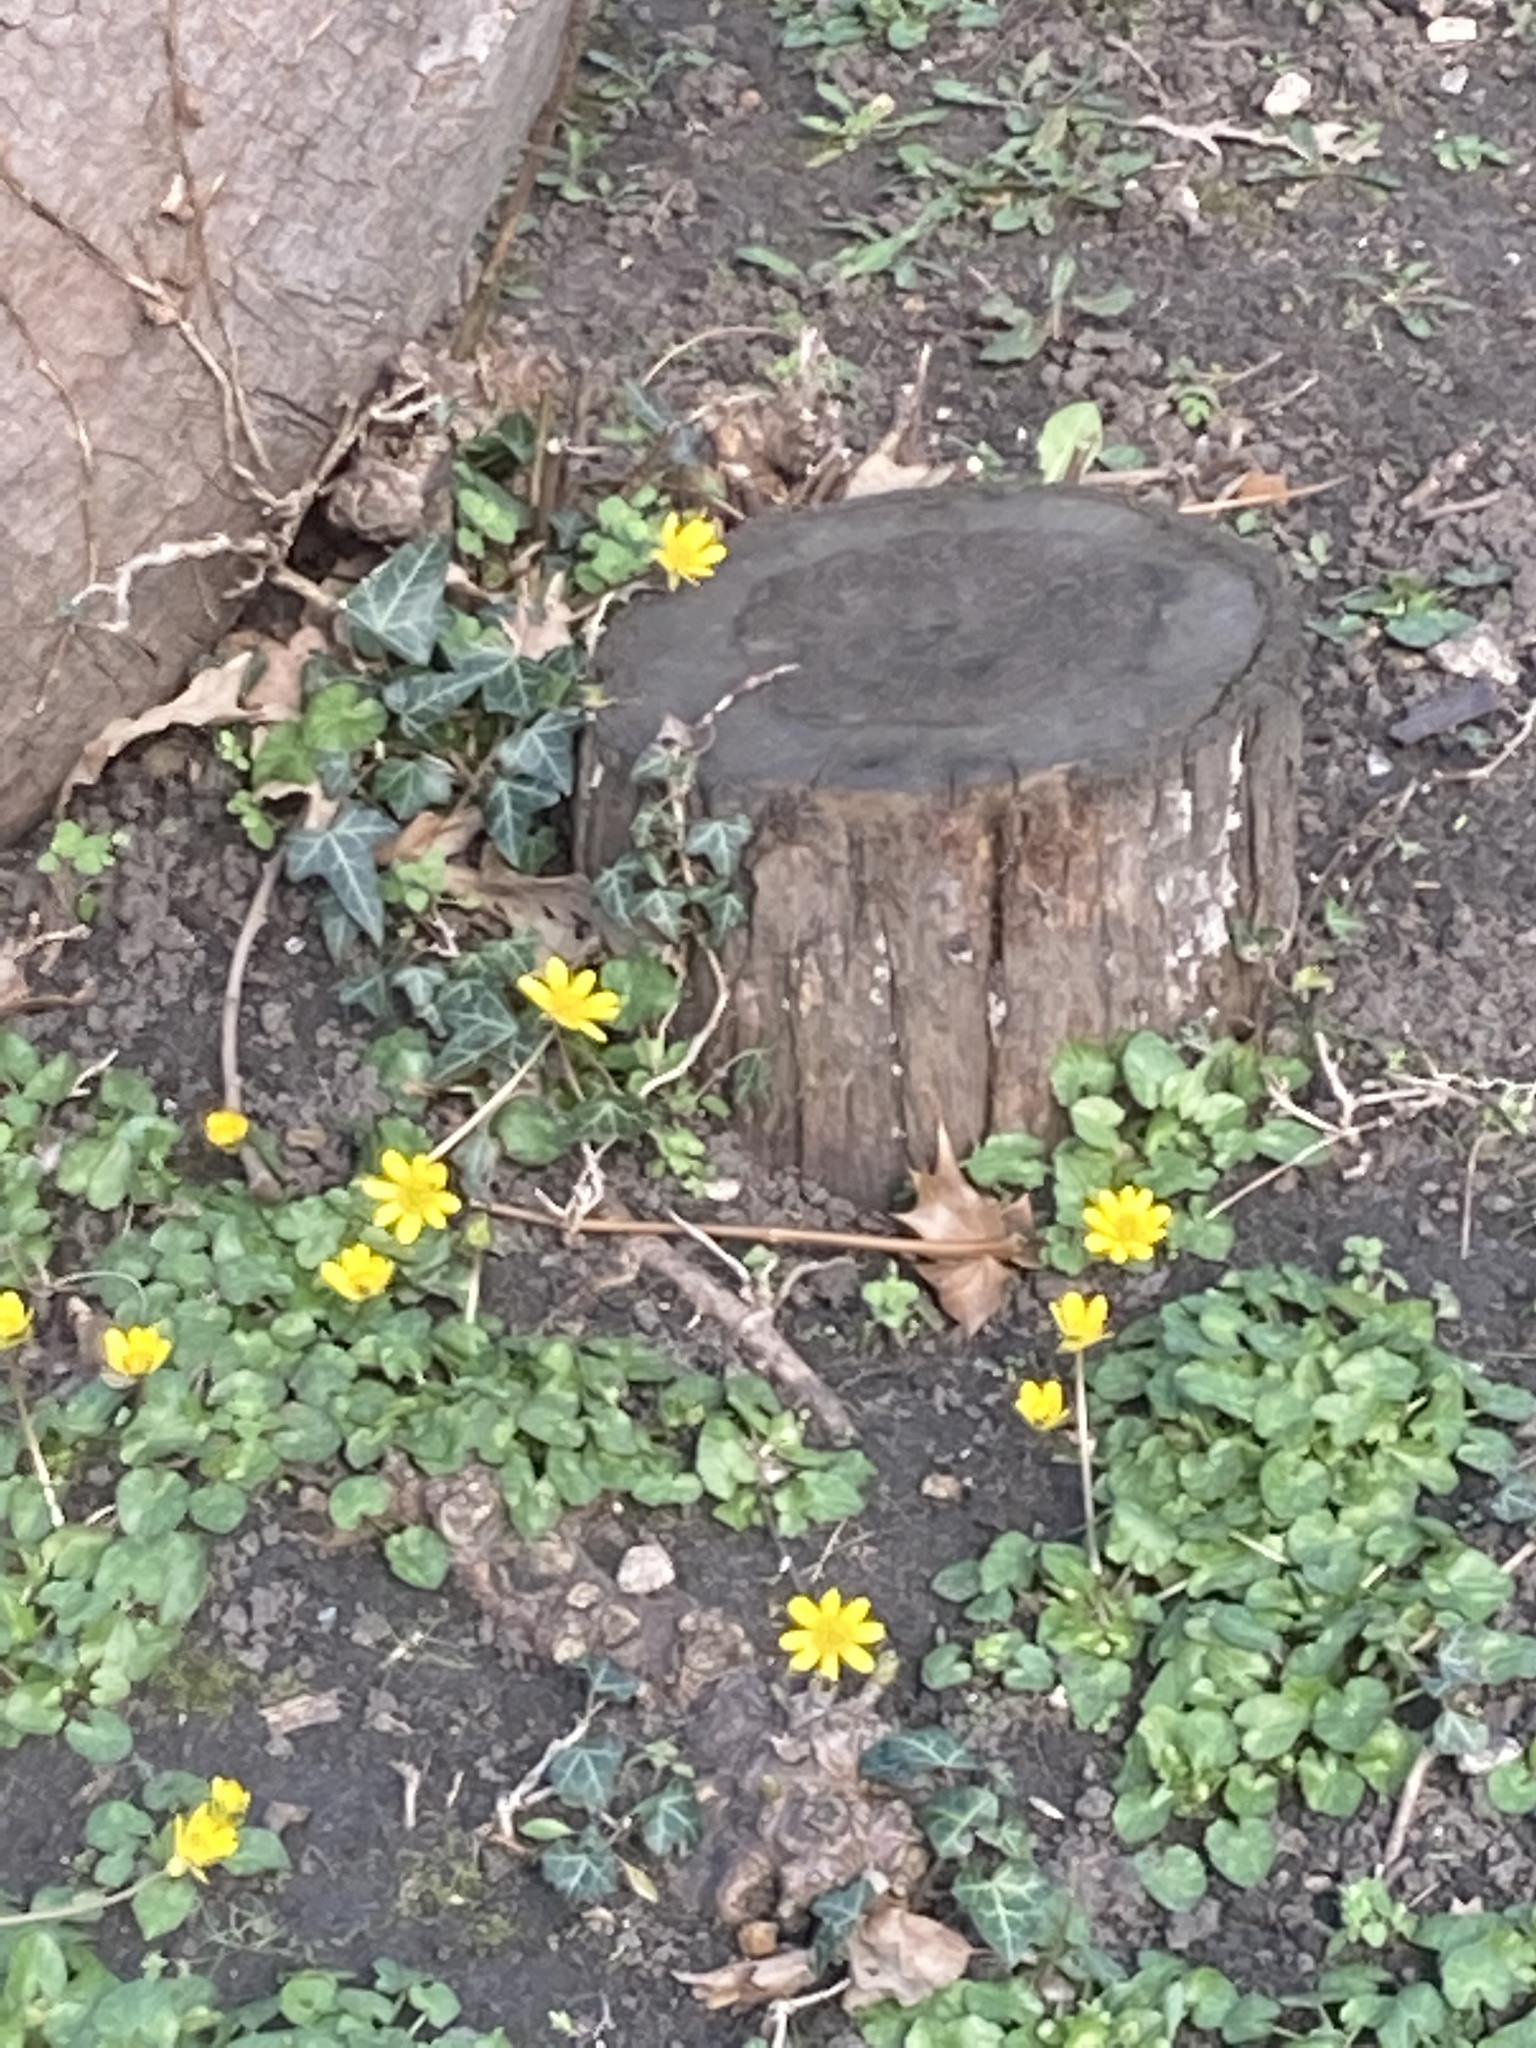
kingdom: Plantae
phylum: Tracheophyta
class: Magnoliopsida
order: Ranunculales
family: Ranunculaceae
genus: Ficaria
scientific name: Ficaria verna
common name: Lesser celandine
